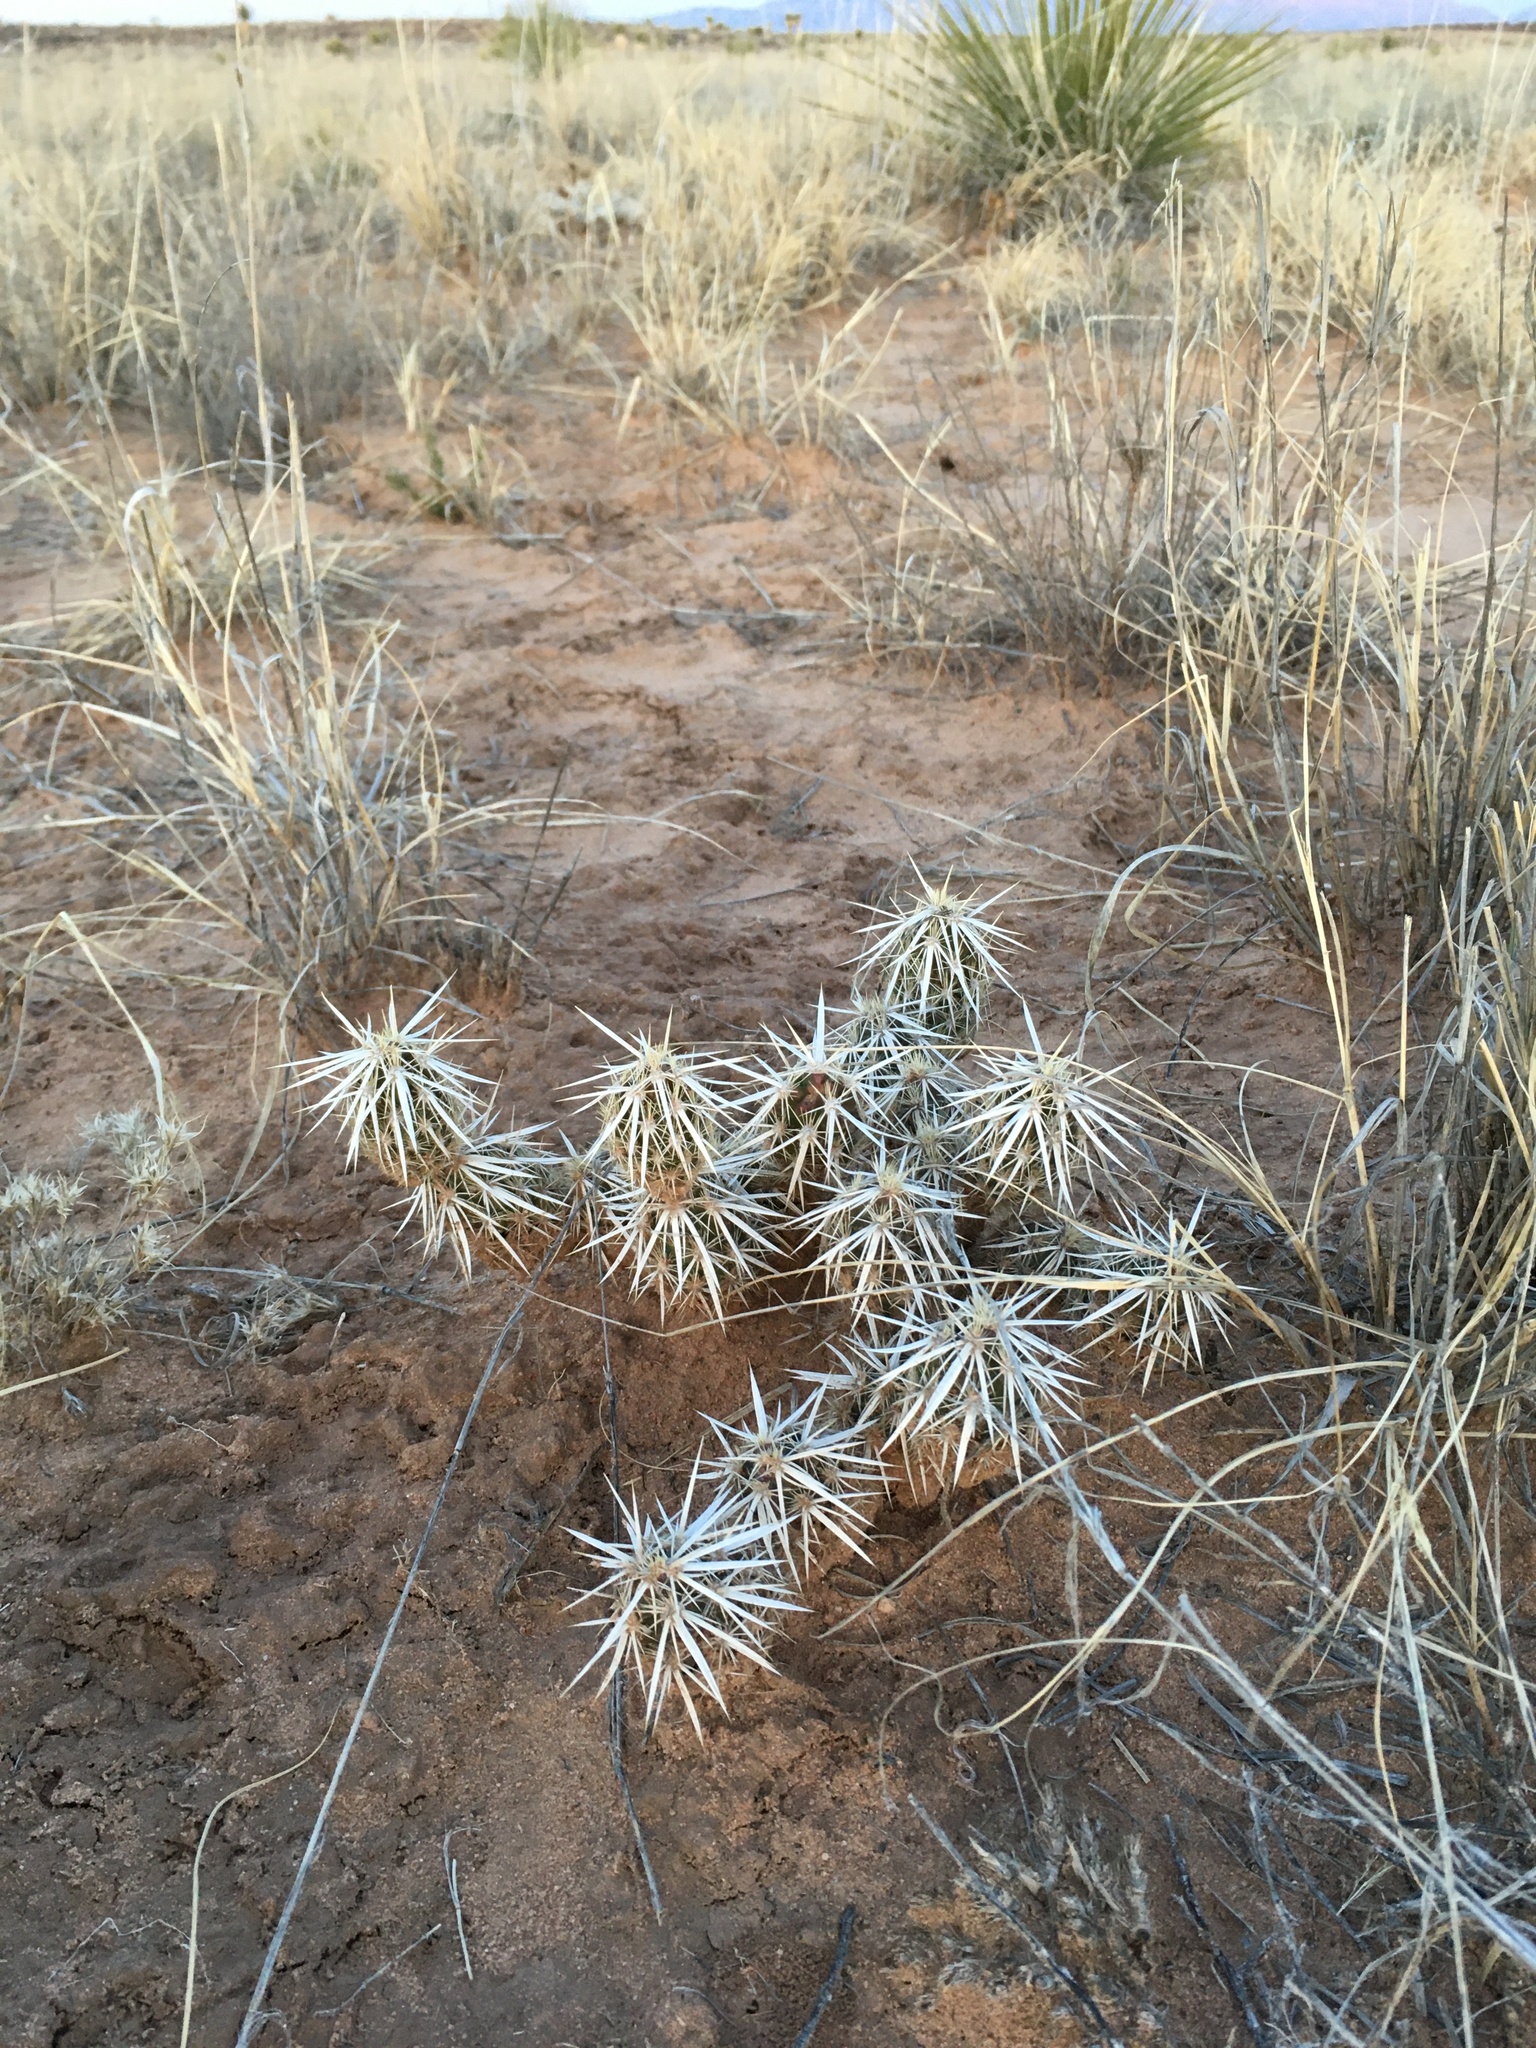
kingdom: Plantae
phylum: Tracheophyta
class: Magnoliopsida
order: Caryophyllales
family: Cactaceae
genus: Grusonia
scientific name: Grusonia clavata
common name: Club cholla
